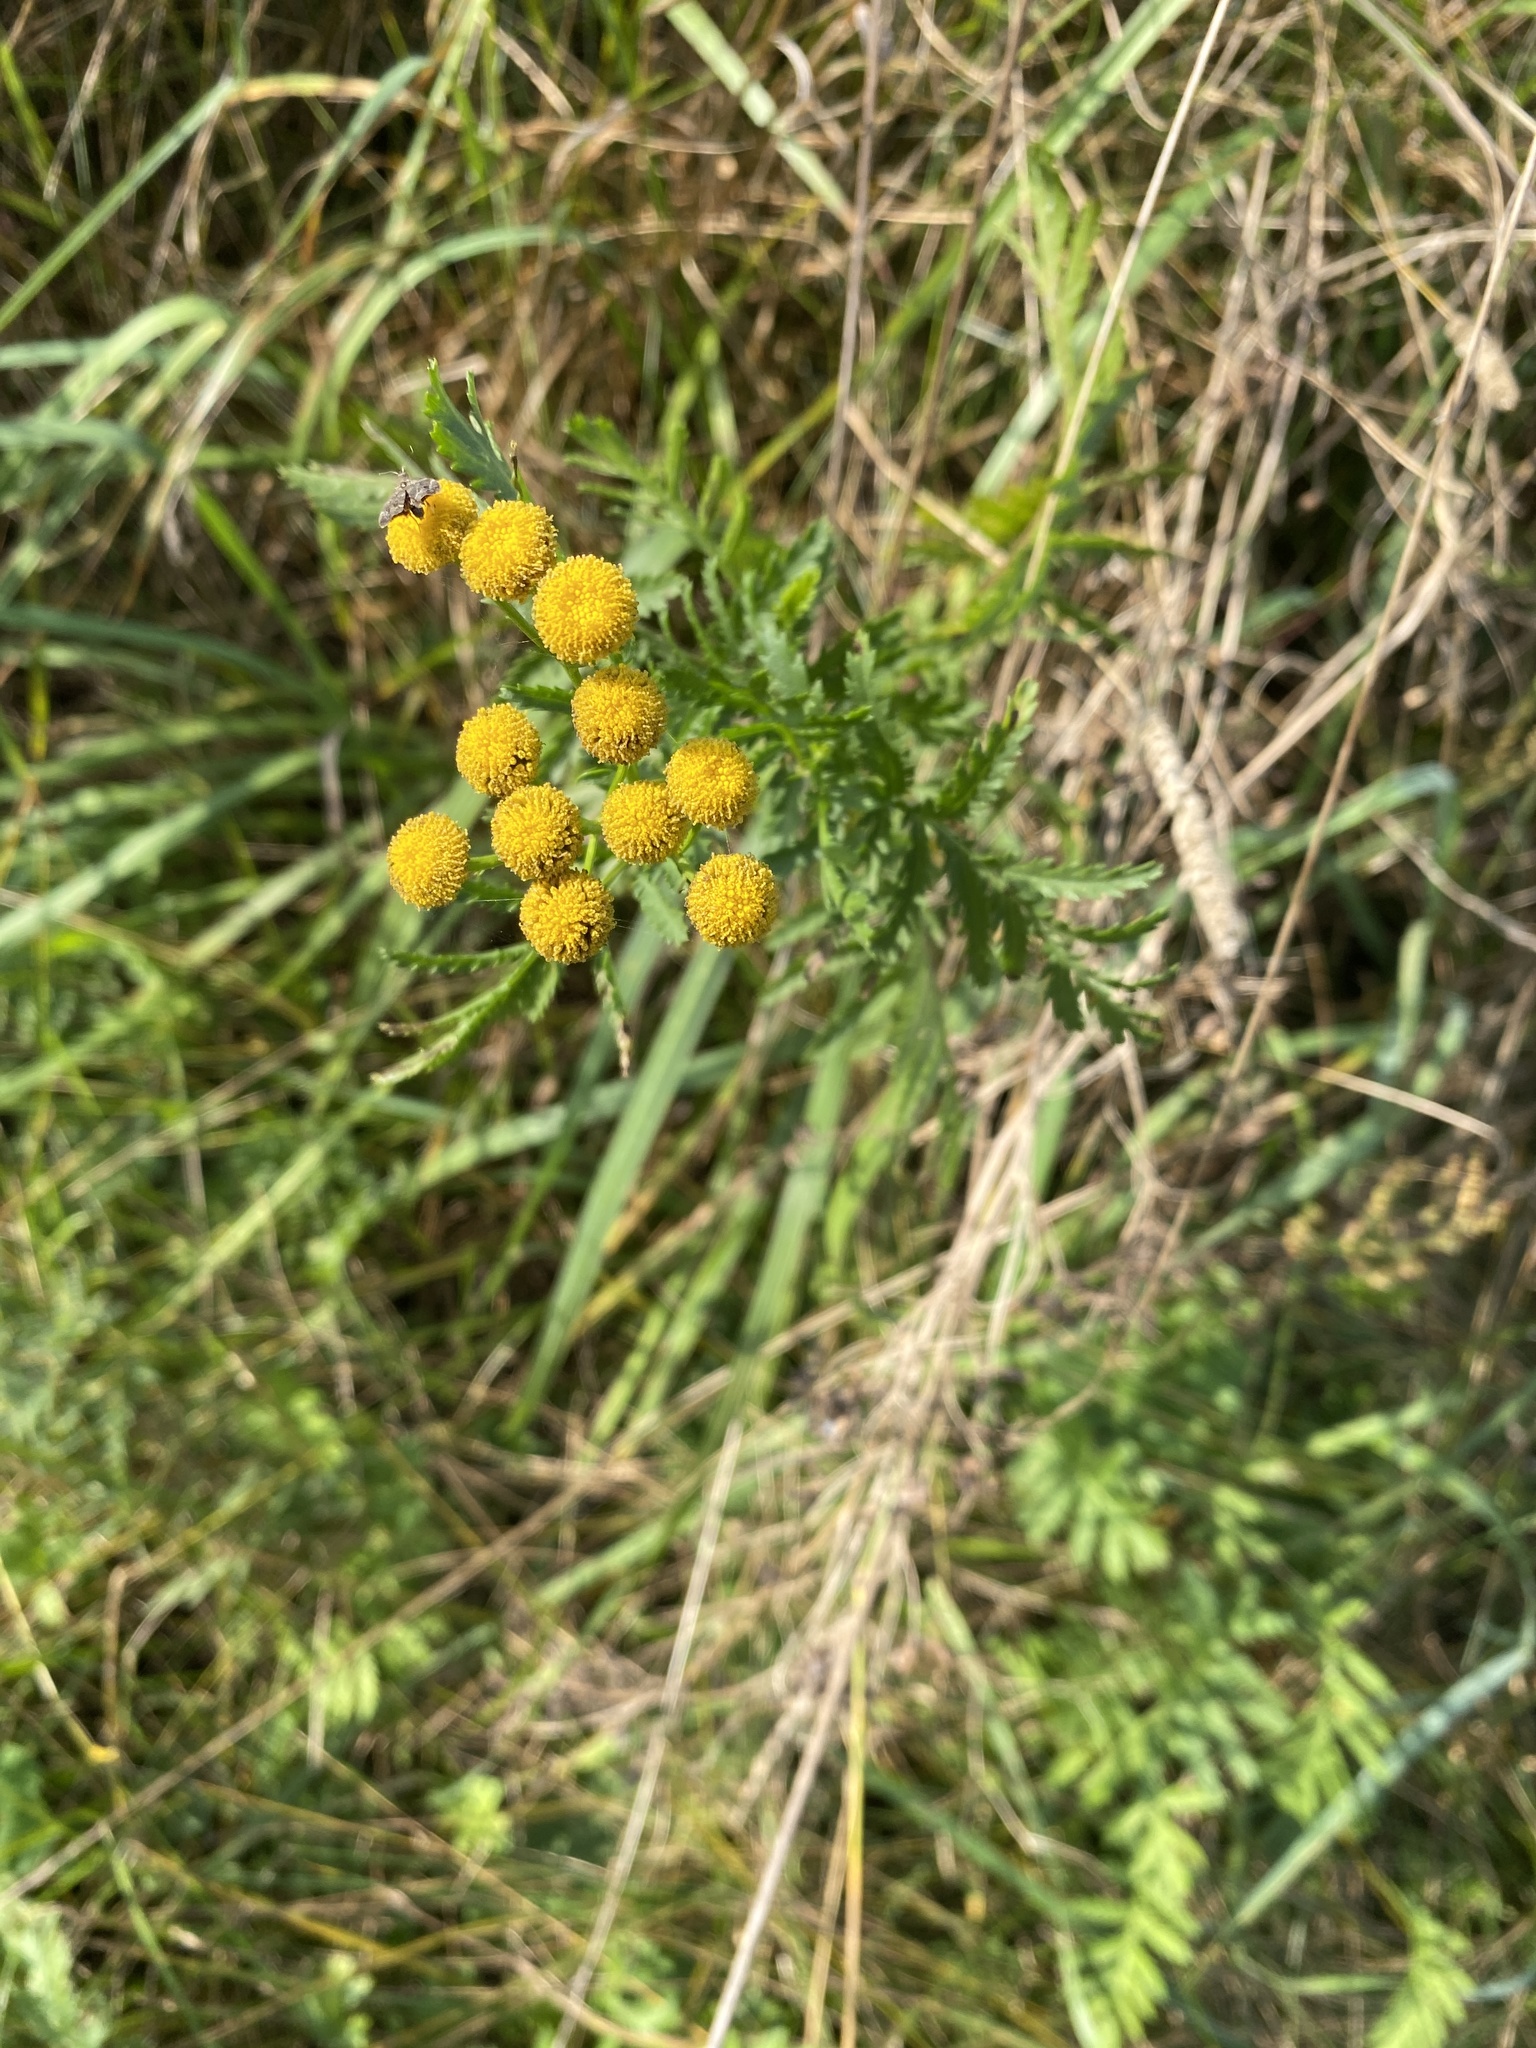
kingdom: Plantae
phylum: Tracheophyta
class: Magnoliopsida
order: Asterales
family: Asteraceae
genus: Tanacetum
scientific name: Tanacetum vulgare
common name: Common tansy
